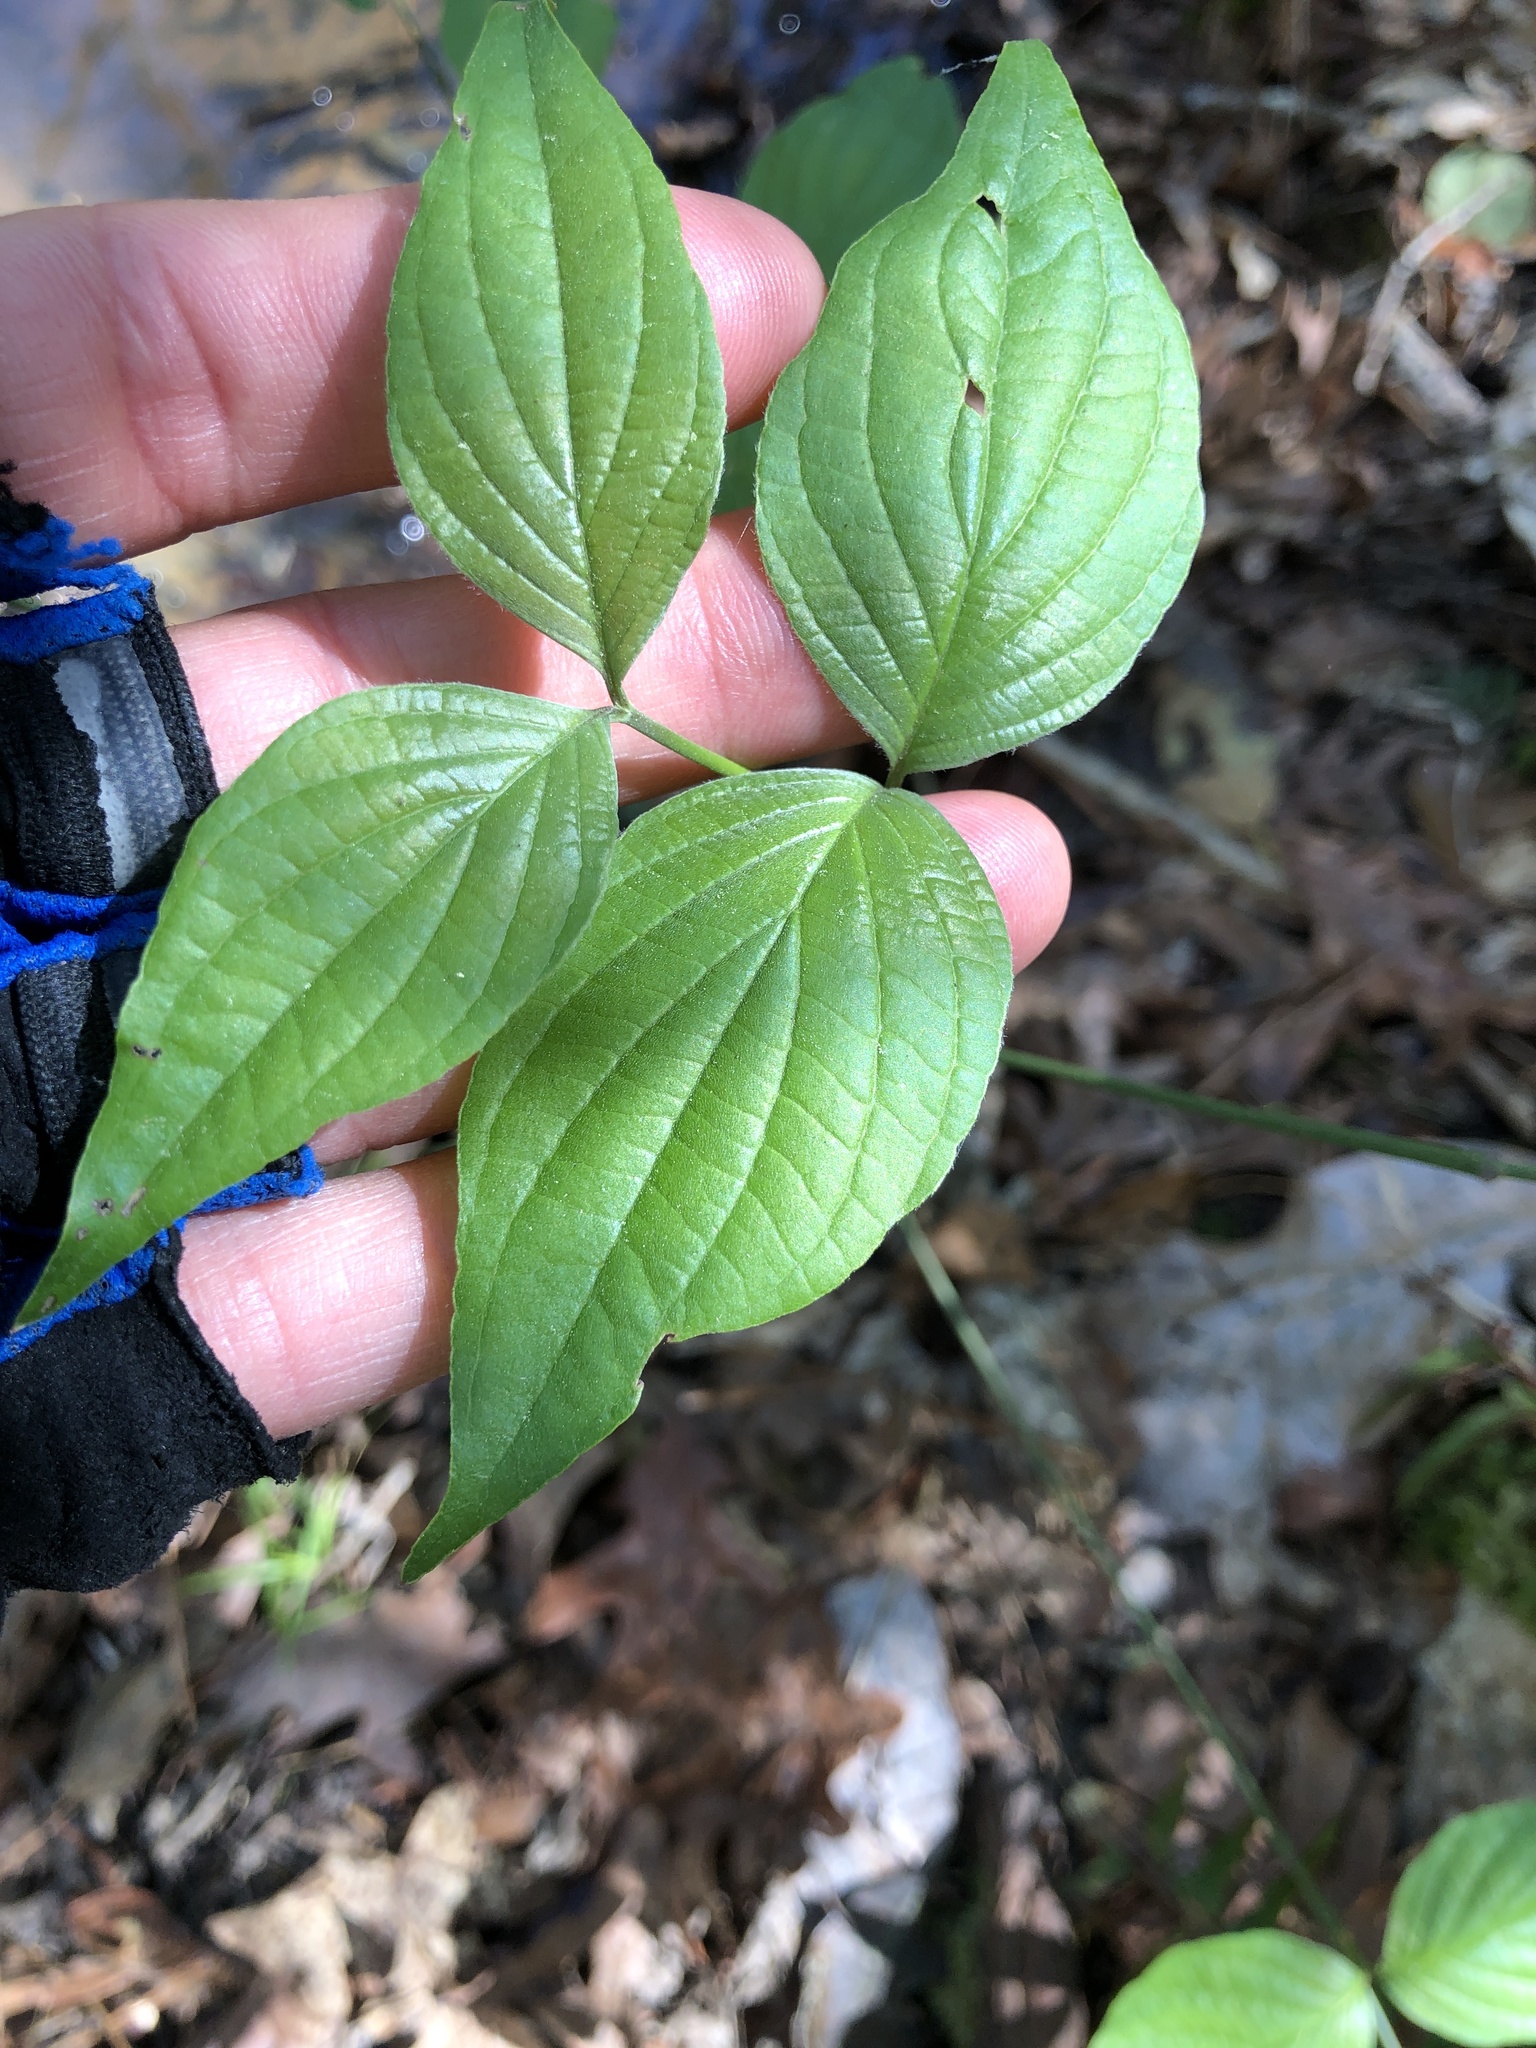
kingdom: Plantae
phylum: Tracheophyta
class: Magnoliopsida
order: Cornales
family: Cornaceae
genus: Cornus
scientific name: Cornus florida
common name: Flowering dogwood
